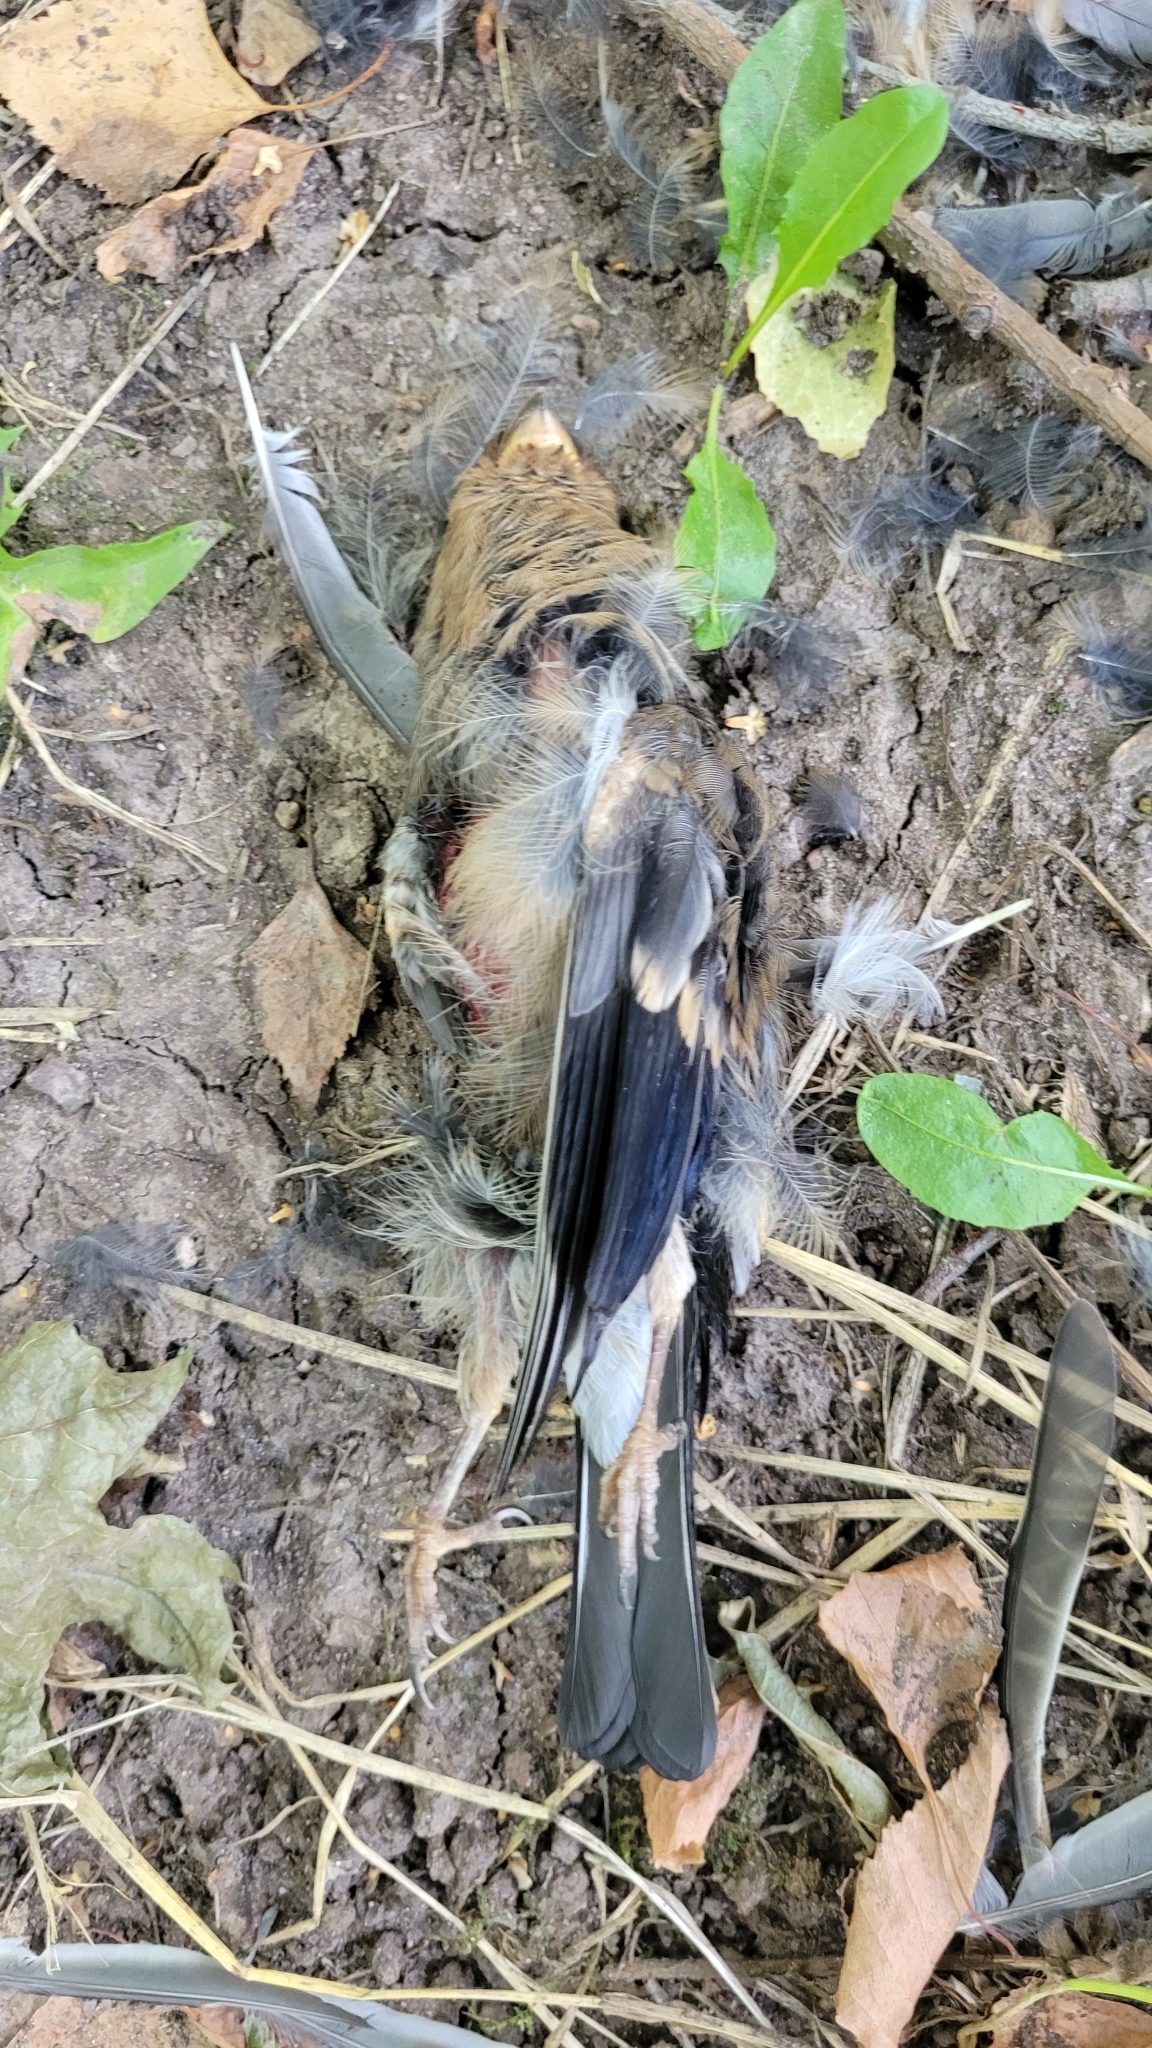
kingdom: Animalia
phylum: Chordata
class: Aves
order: Passeriformes
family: Fringillidae
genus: Pyrrhula
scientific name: Pyrrhula pyrrhula
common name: Eurasian bullfinch
